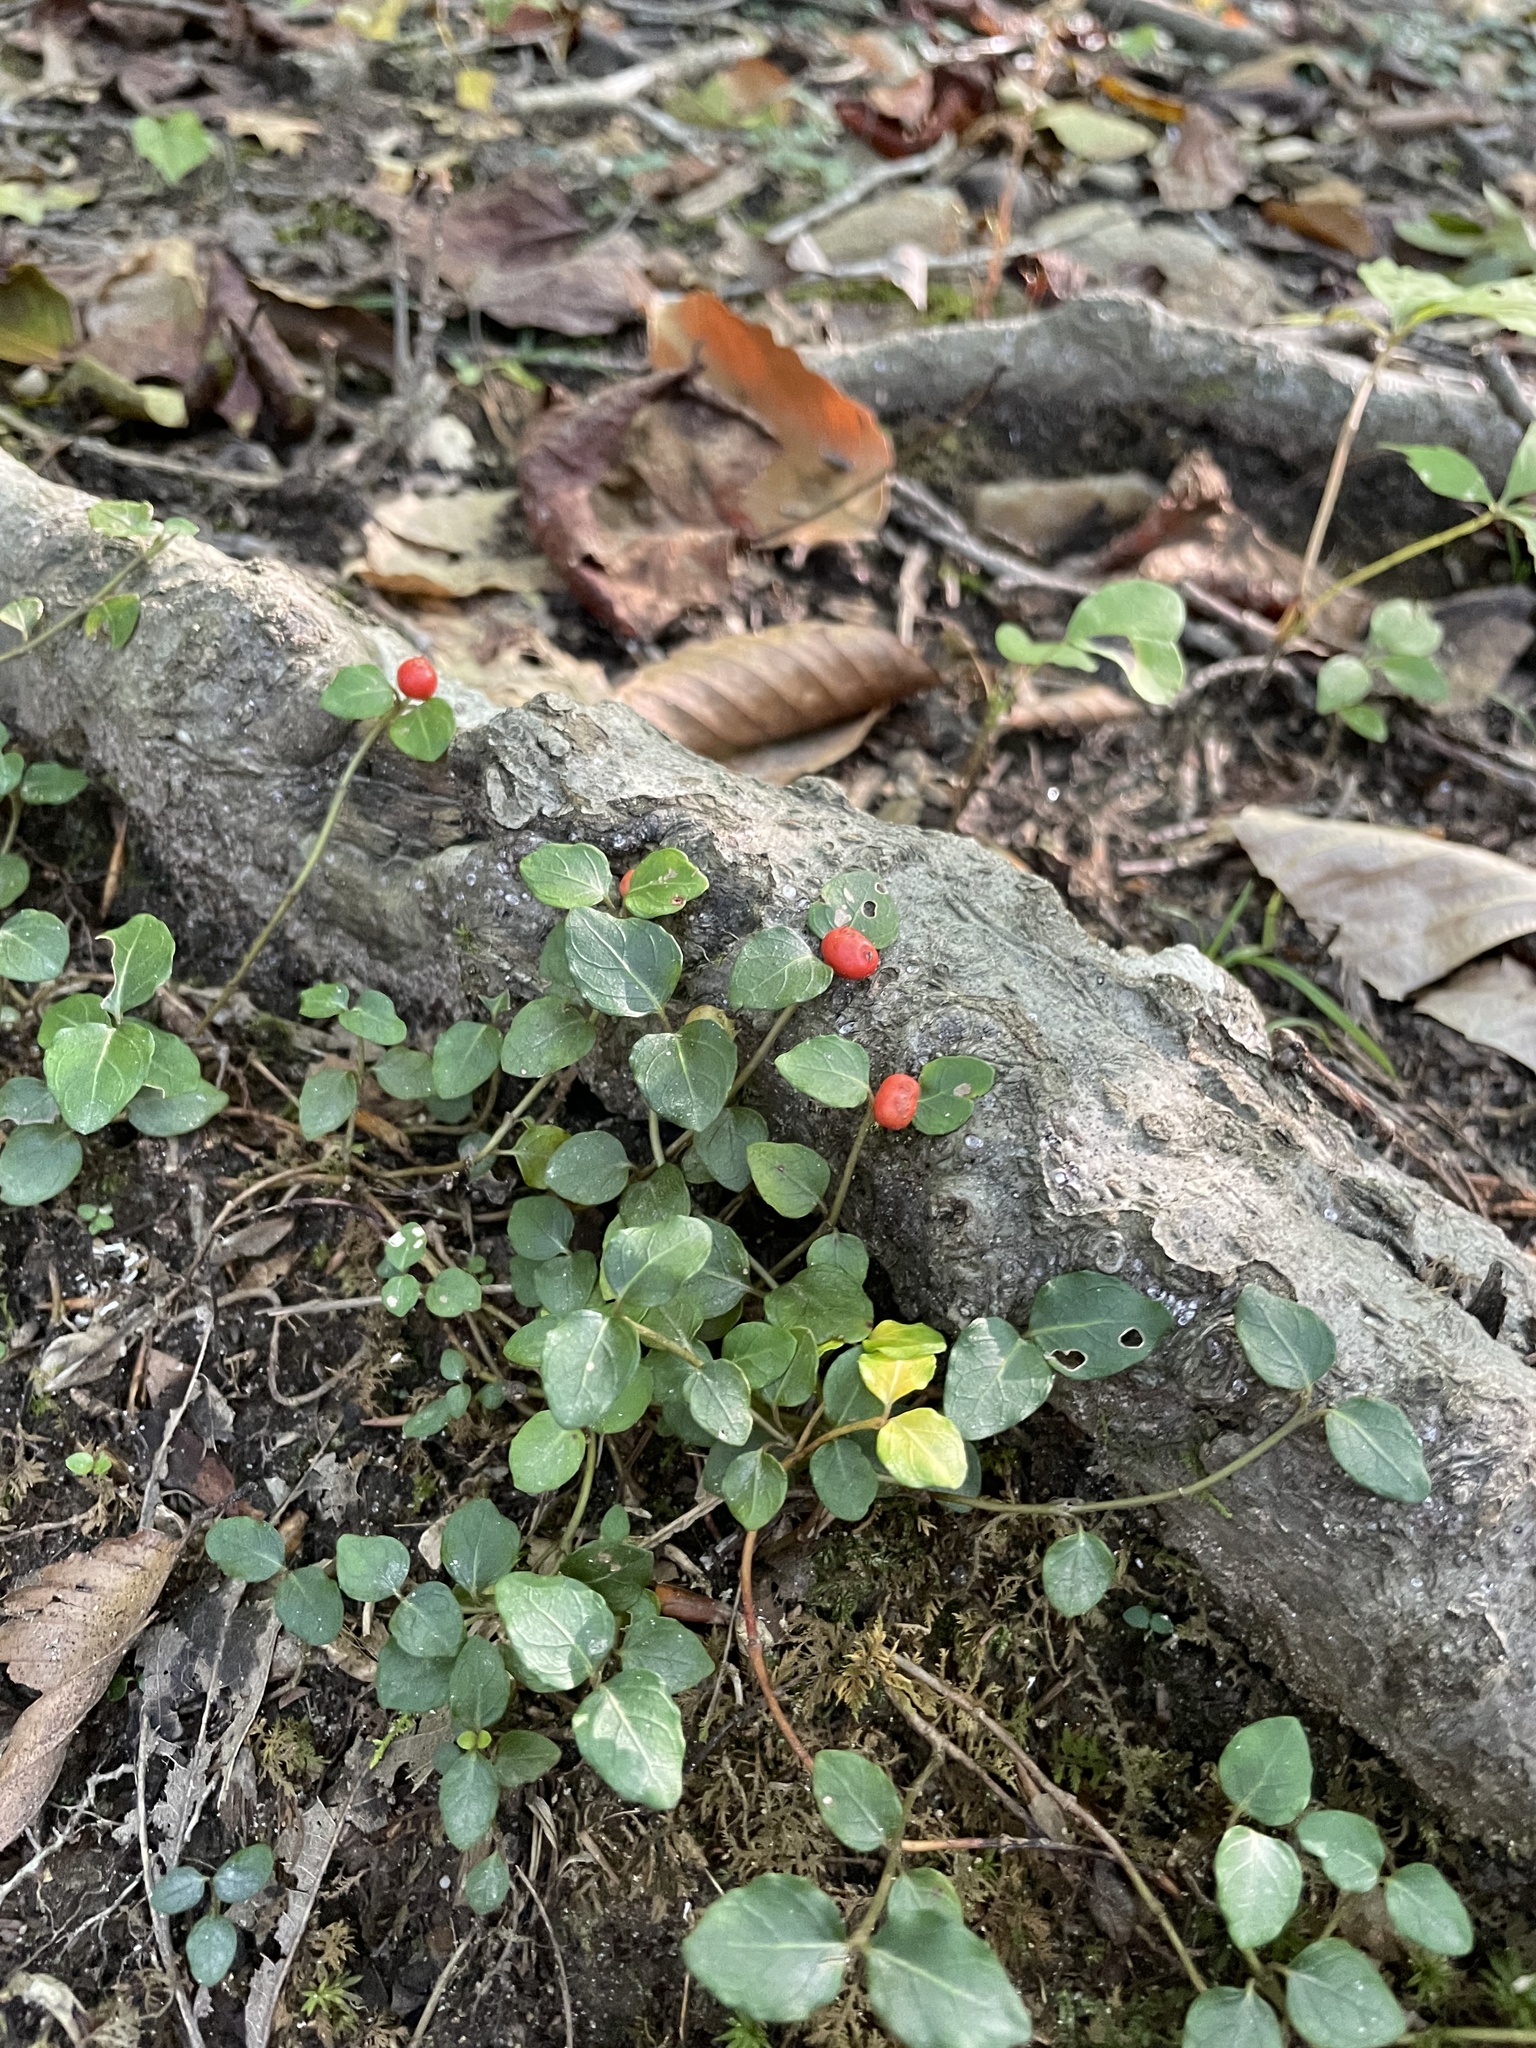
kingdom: Plantae
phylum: Tracheophyta
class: Magnoliopsida
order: Gentianales
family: Rubiaceae
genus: Mitchella
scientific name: Mitchella repens
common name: Partridge-berry
